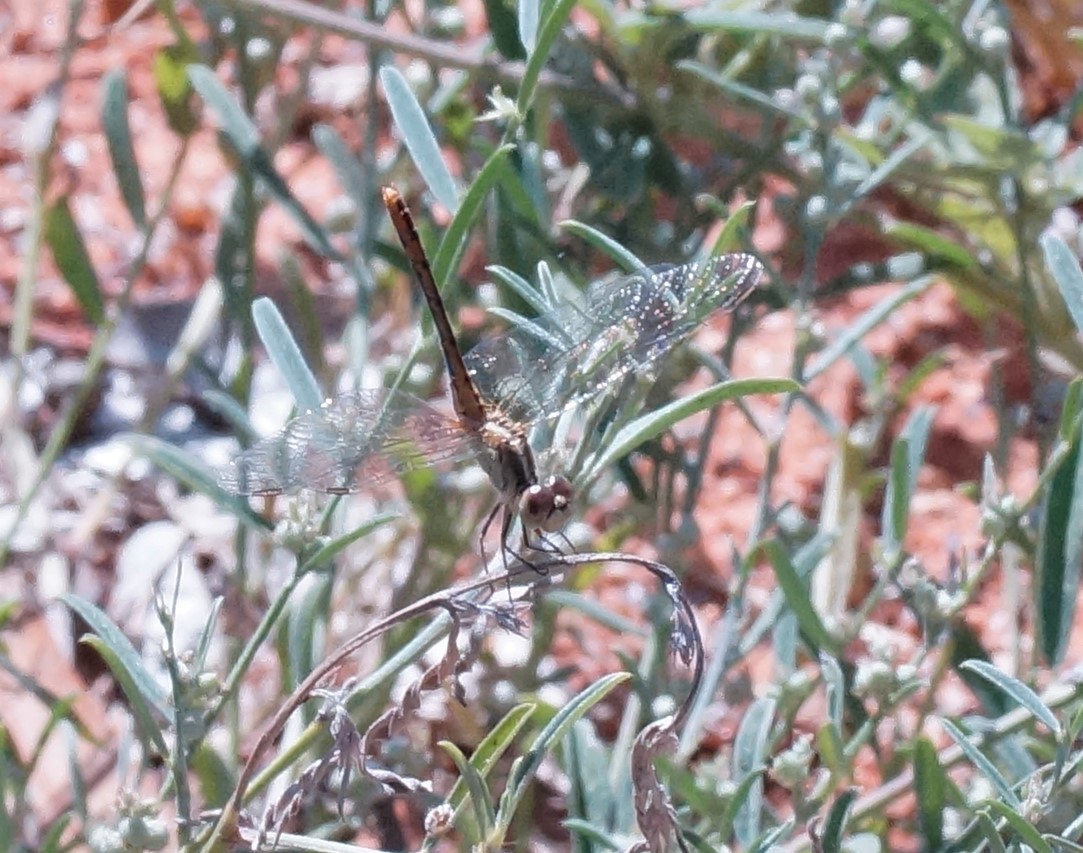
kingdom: Animalia
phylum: Arthropoda
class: Insecta
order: Odonata
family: Libellulidae
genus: Diplacodes
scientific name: Diplacodes bipunctata
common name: Red percher dragonfly
